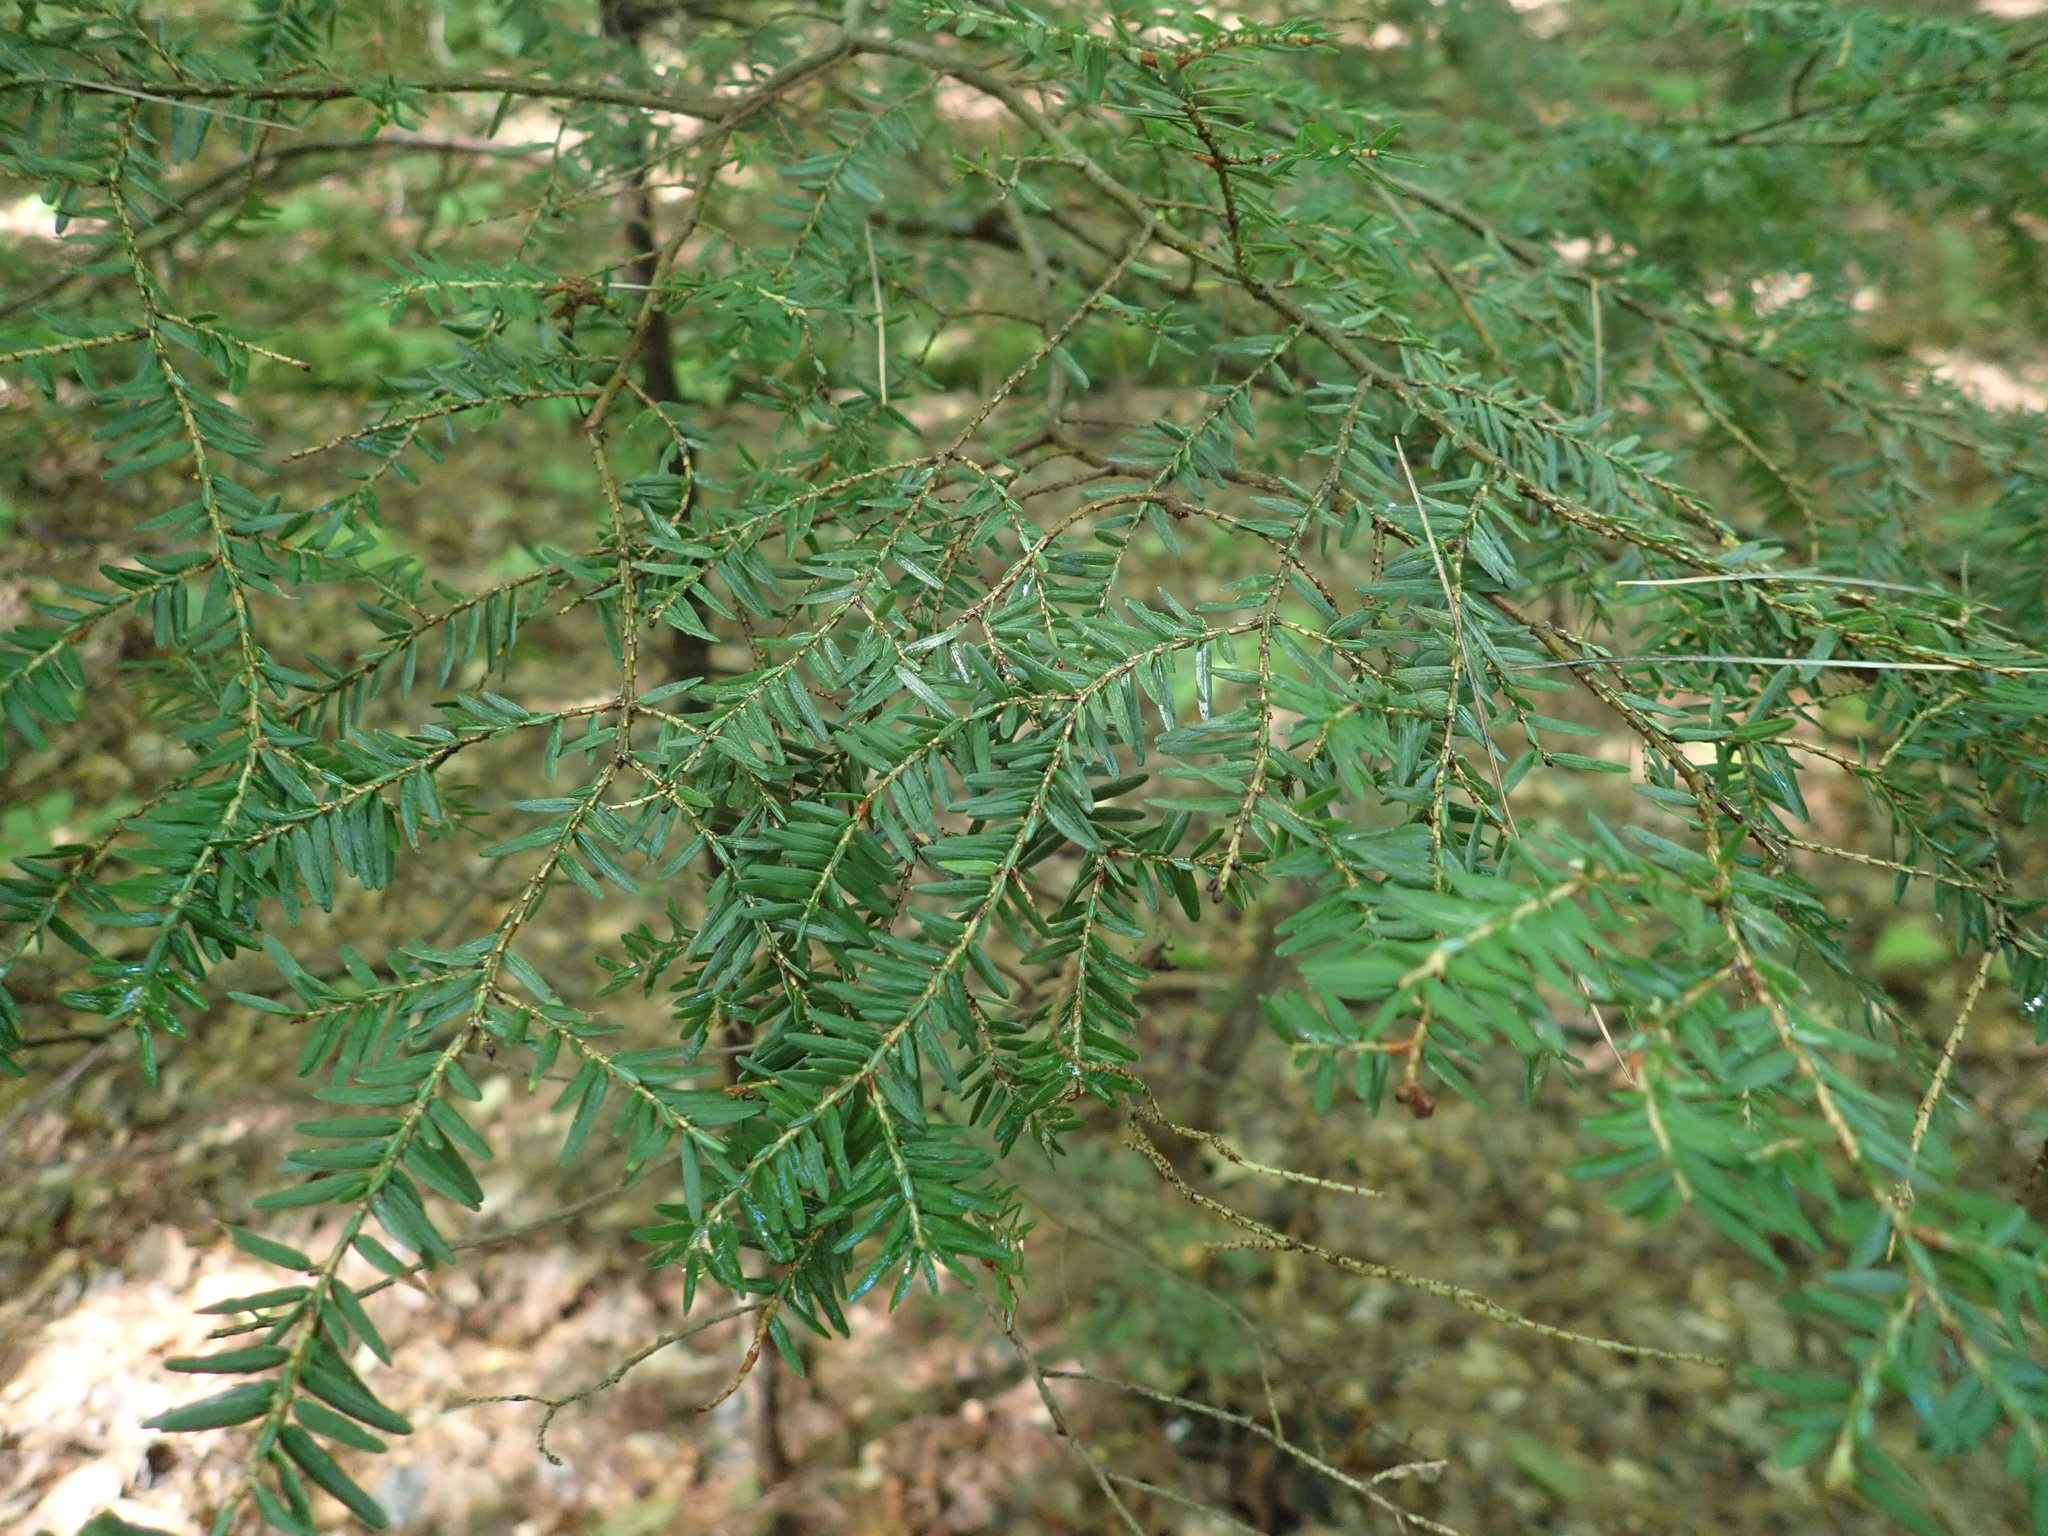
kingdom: Plantae
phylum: Tracheophyta
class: Pinopsida
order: Pinales
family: Pinaceae
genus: Tsuga
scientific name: Tsuga canadensis
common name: Eastern hemlock
